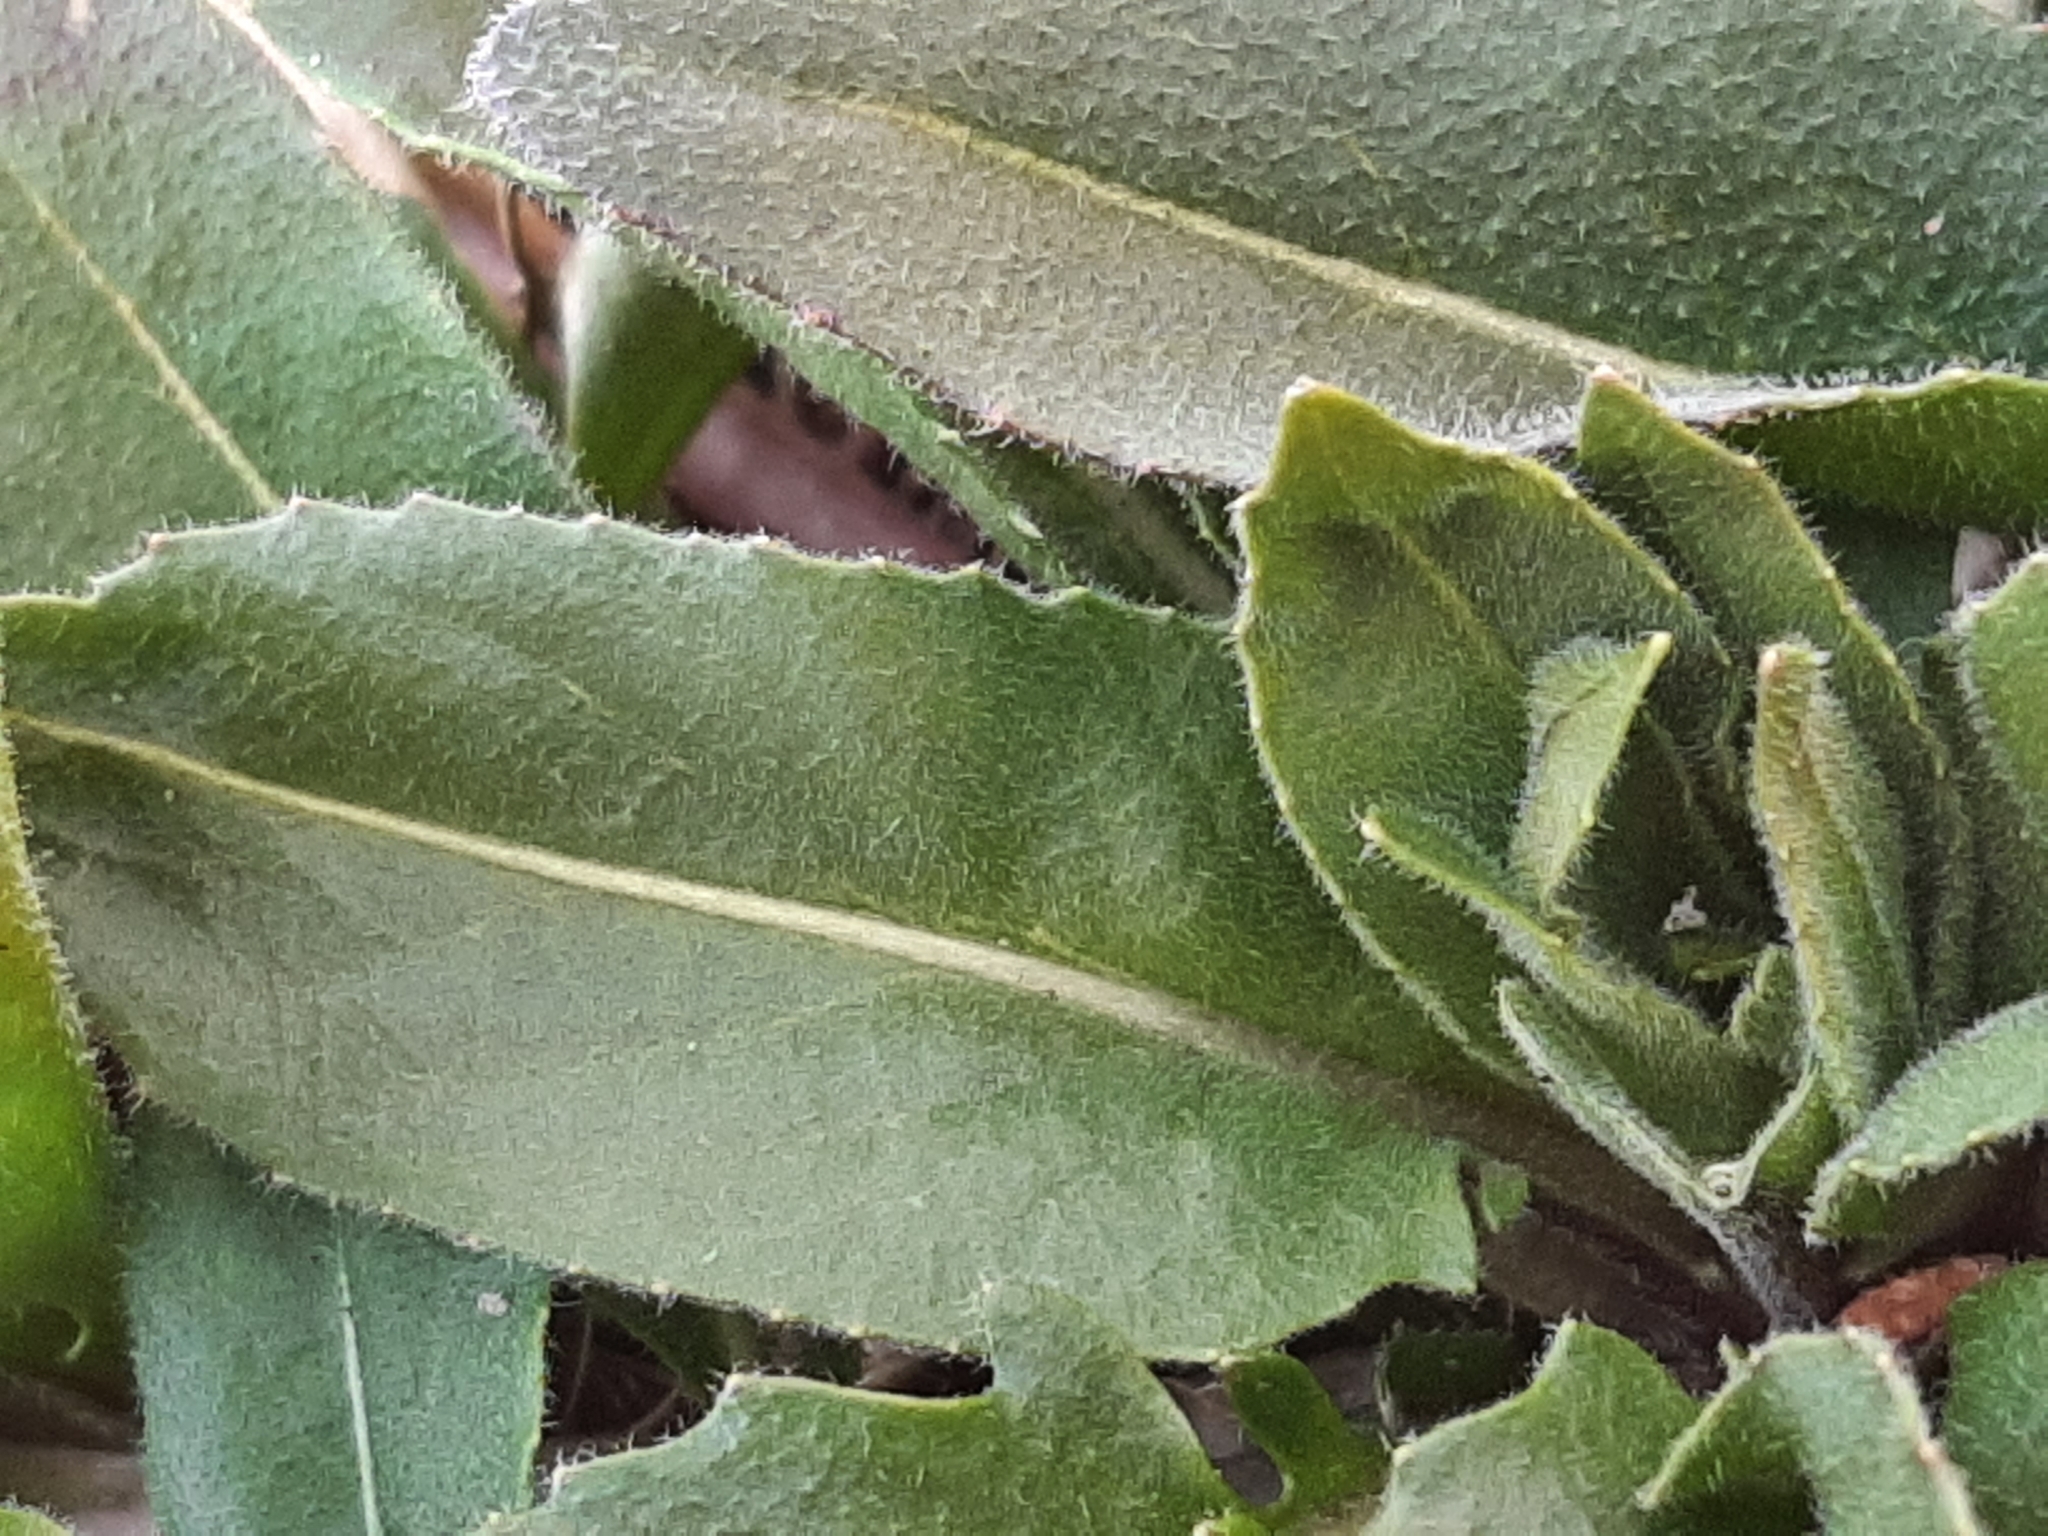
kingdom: Plantae
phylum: Tracheophyta
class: Magnoliopsida
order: Brassicales
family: Brassicaceae
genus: Hesperis
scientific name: Hesperis matronalis
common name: Dame's-violet
